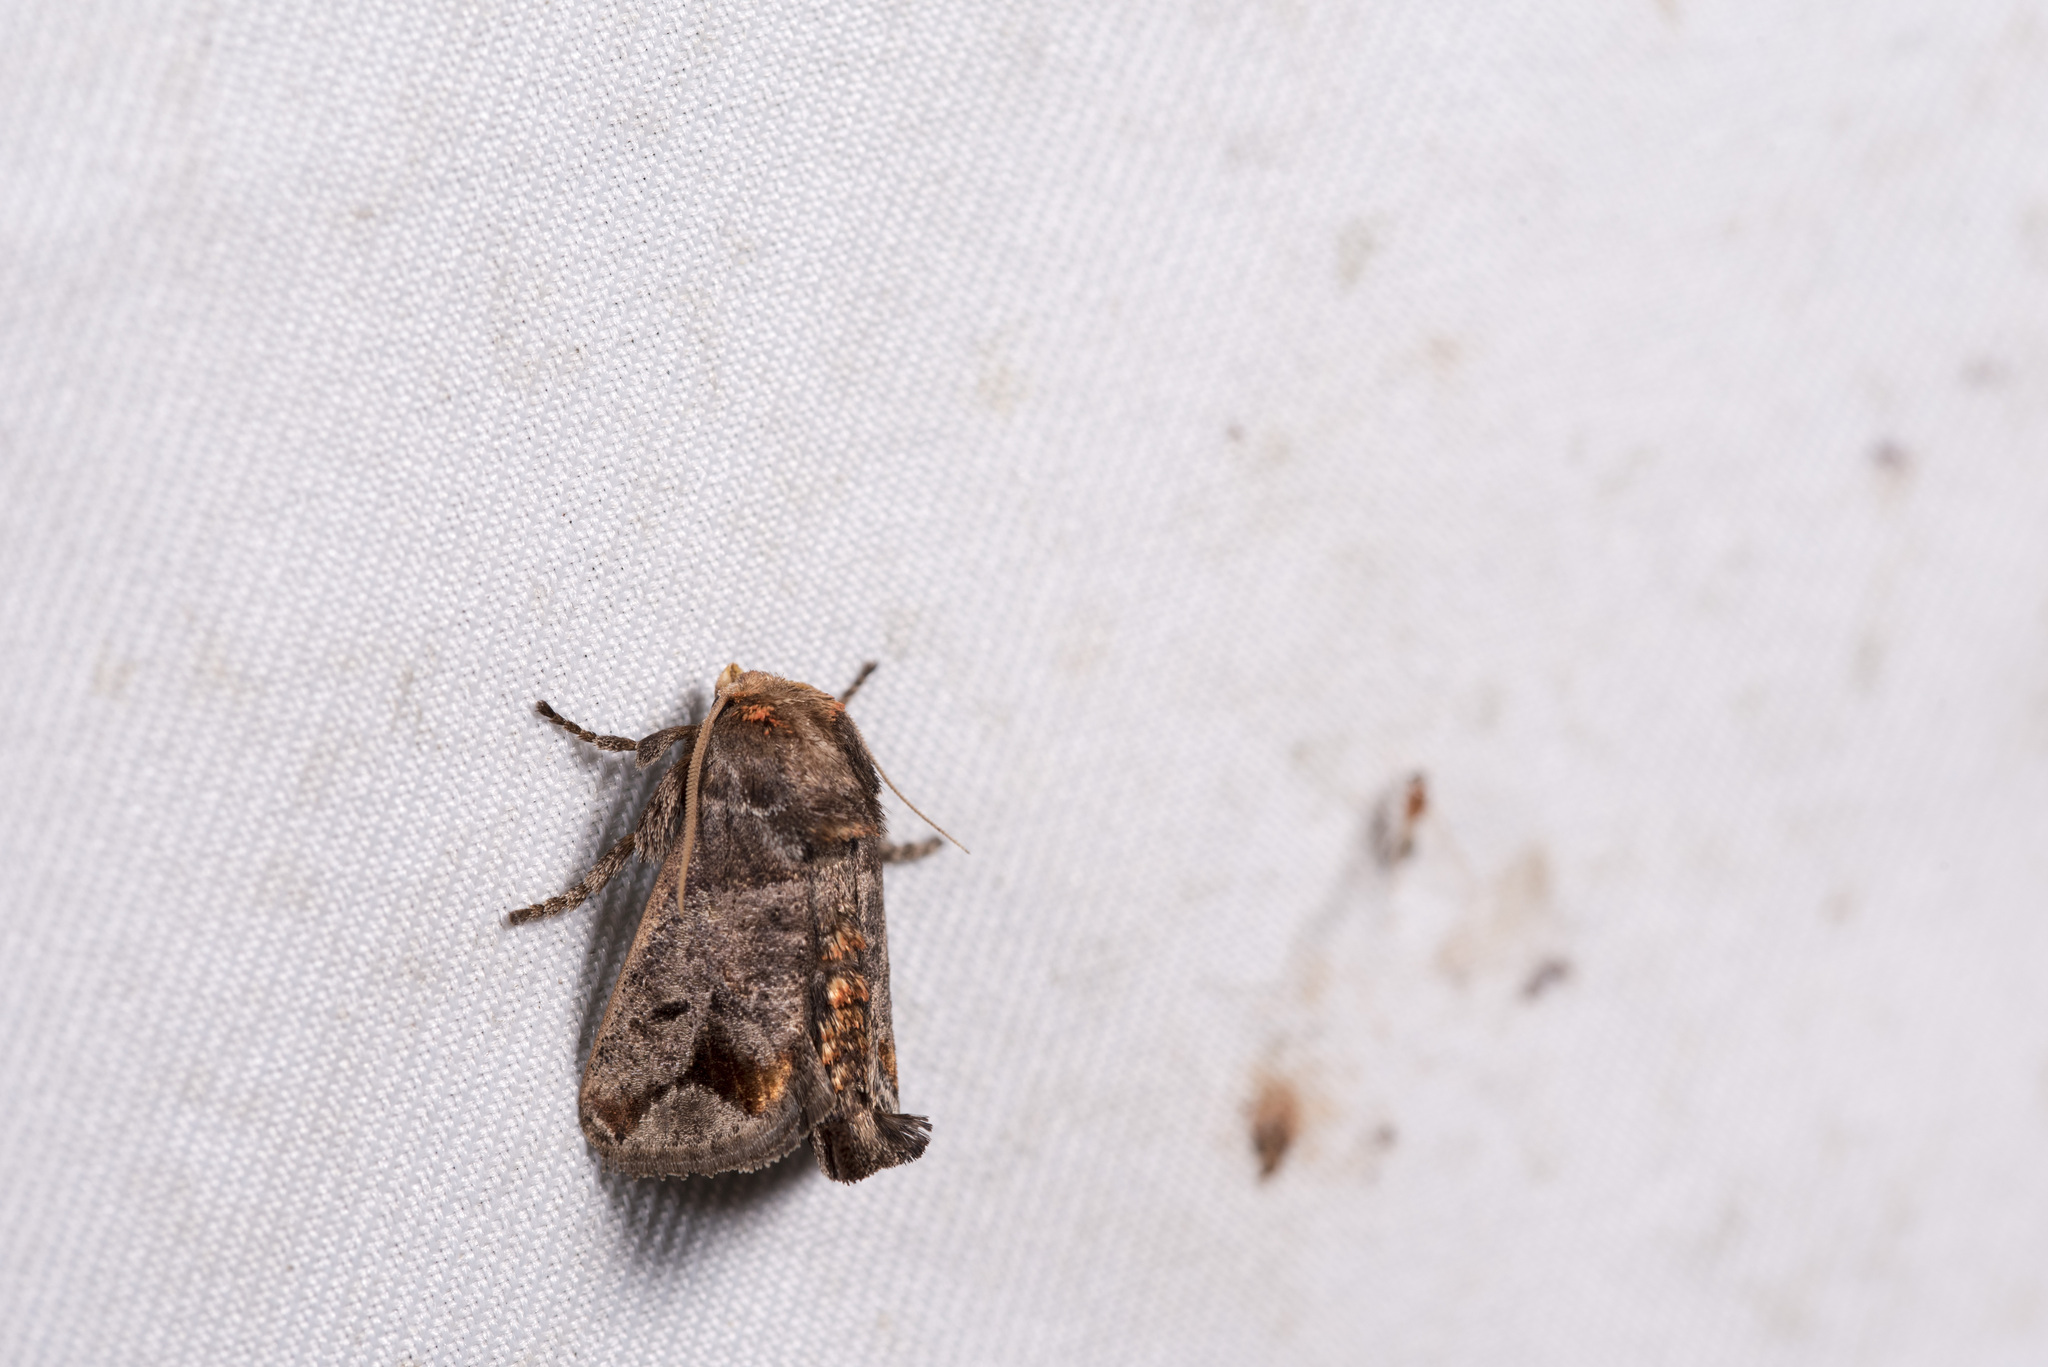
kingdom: Animalia
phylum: Arthropoda
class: Insecta
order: Lepidoptera
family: Limacodidae
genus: Phlossa
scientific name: Phlossa conjuncta
